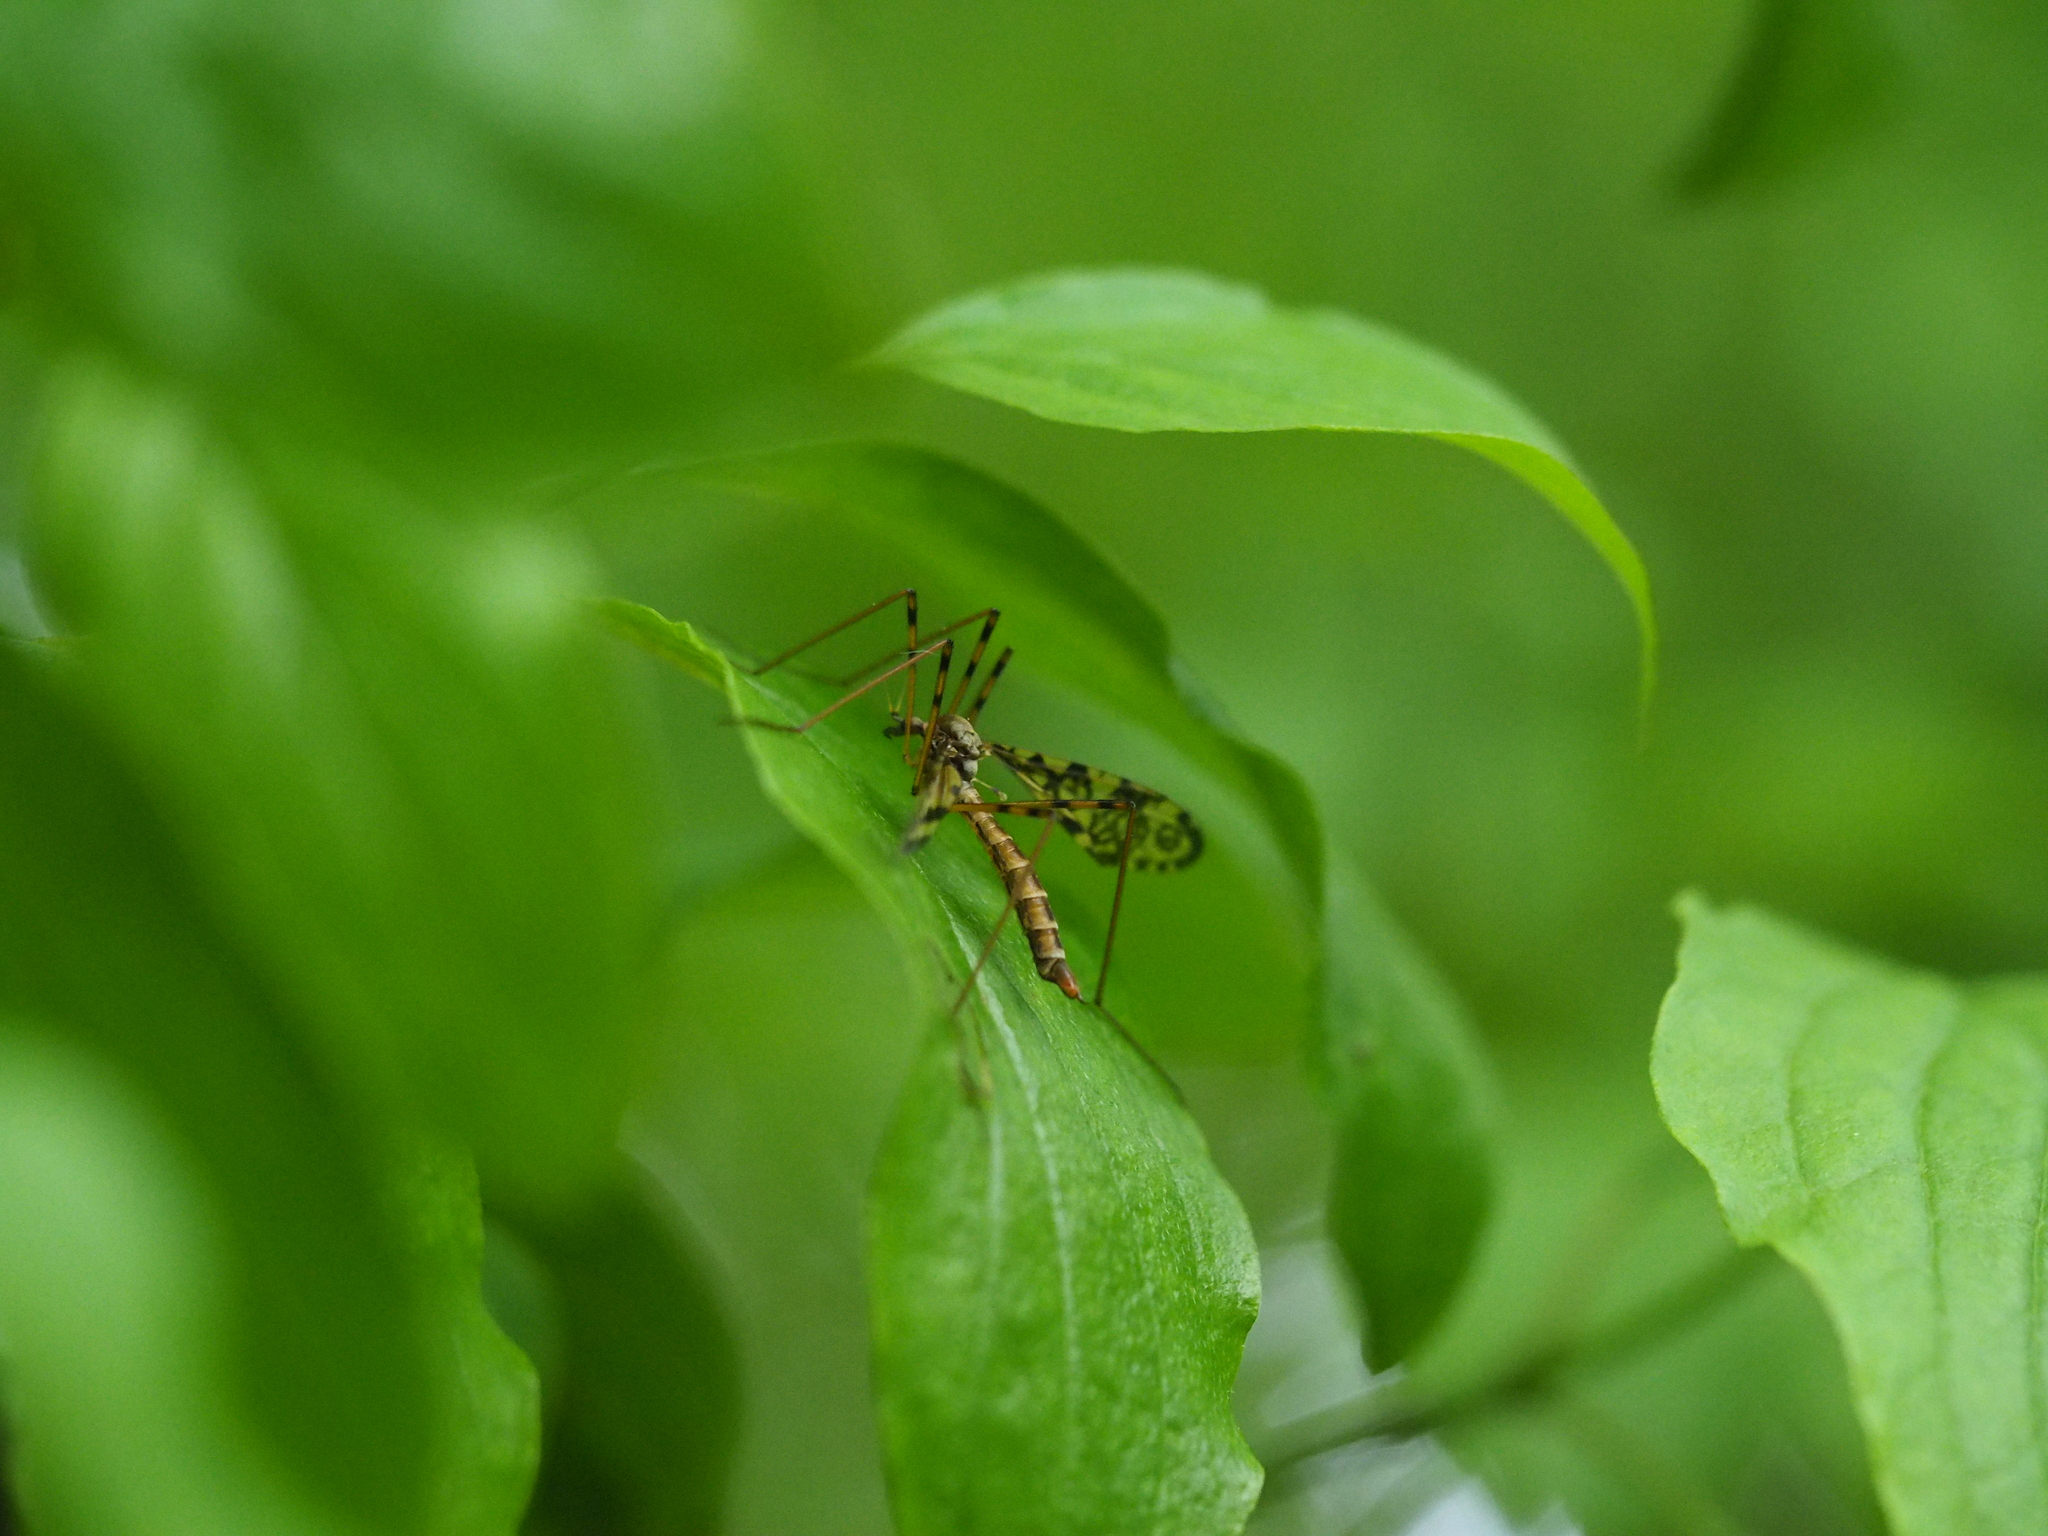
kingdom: Animalia
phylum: Arthropoda
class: Insecta
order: Diptera
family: Limoniidae
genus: Epiphragma
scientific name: Epiphragma ocellare
